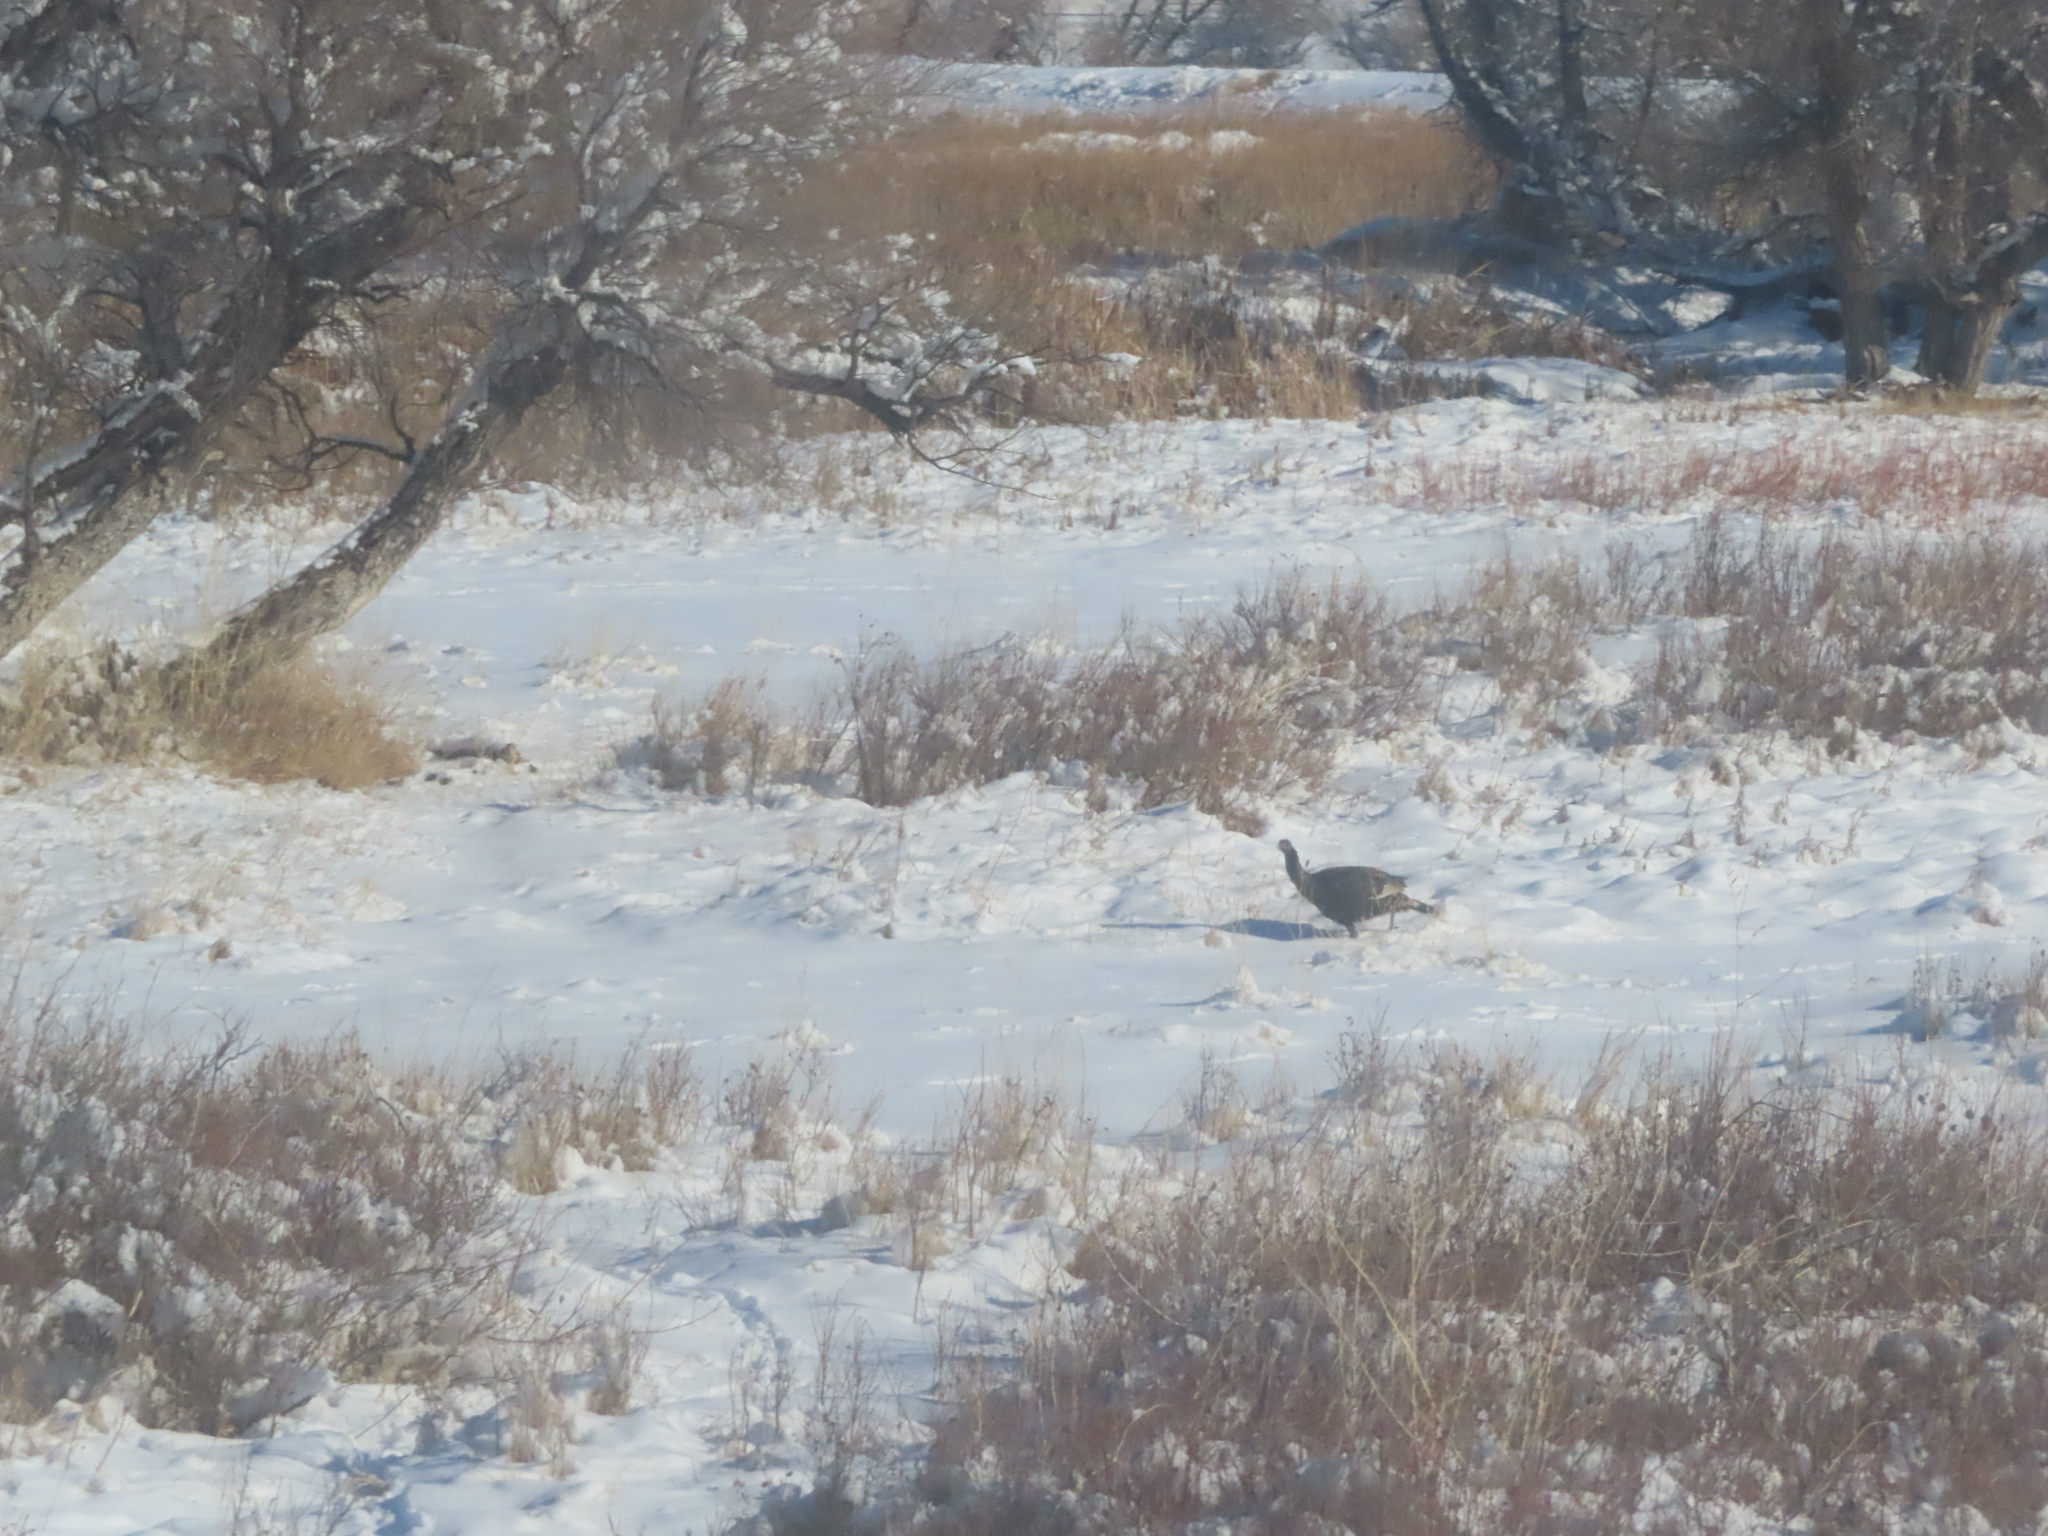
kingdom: Animalia
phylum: Chordata
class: Aves
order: Galliformes
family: Phasianidae
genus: Meleagris
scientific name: Meleagris gallopavo
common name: Wild turkey
